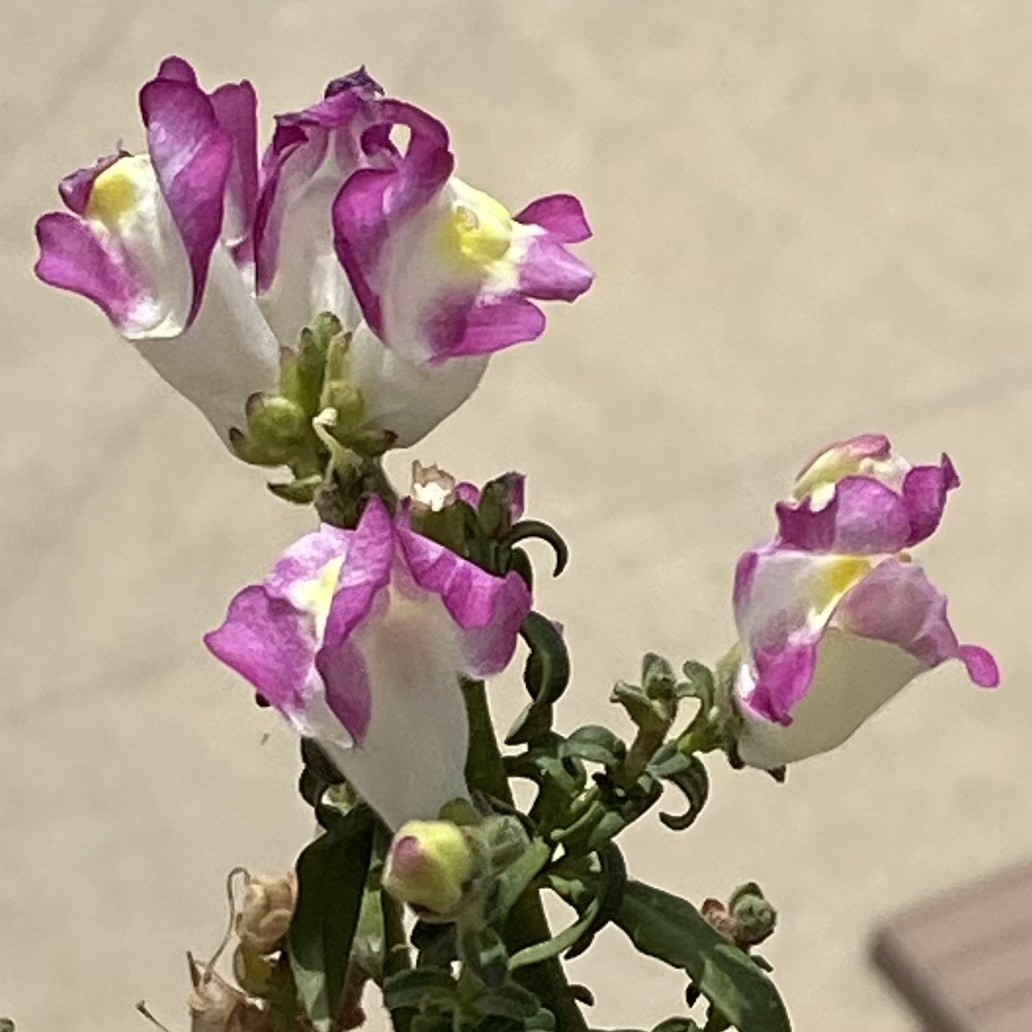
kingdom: Plantae
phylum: Tracheophyta
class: Magnoliopsida
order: Lamiales
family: Plantaginaceae
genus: Antirrhinum
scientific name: Antirrhinum majus
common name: Snapdragon
